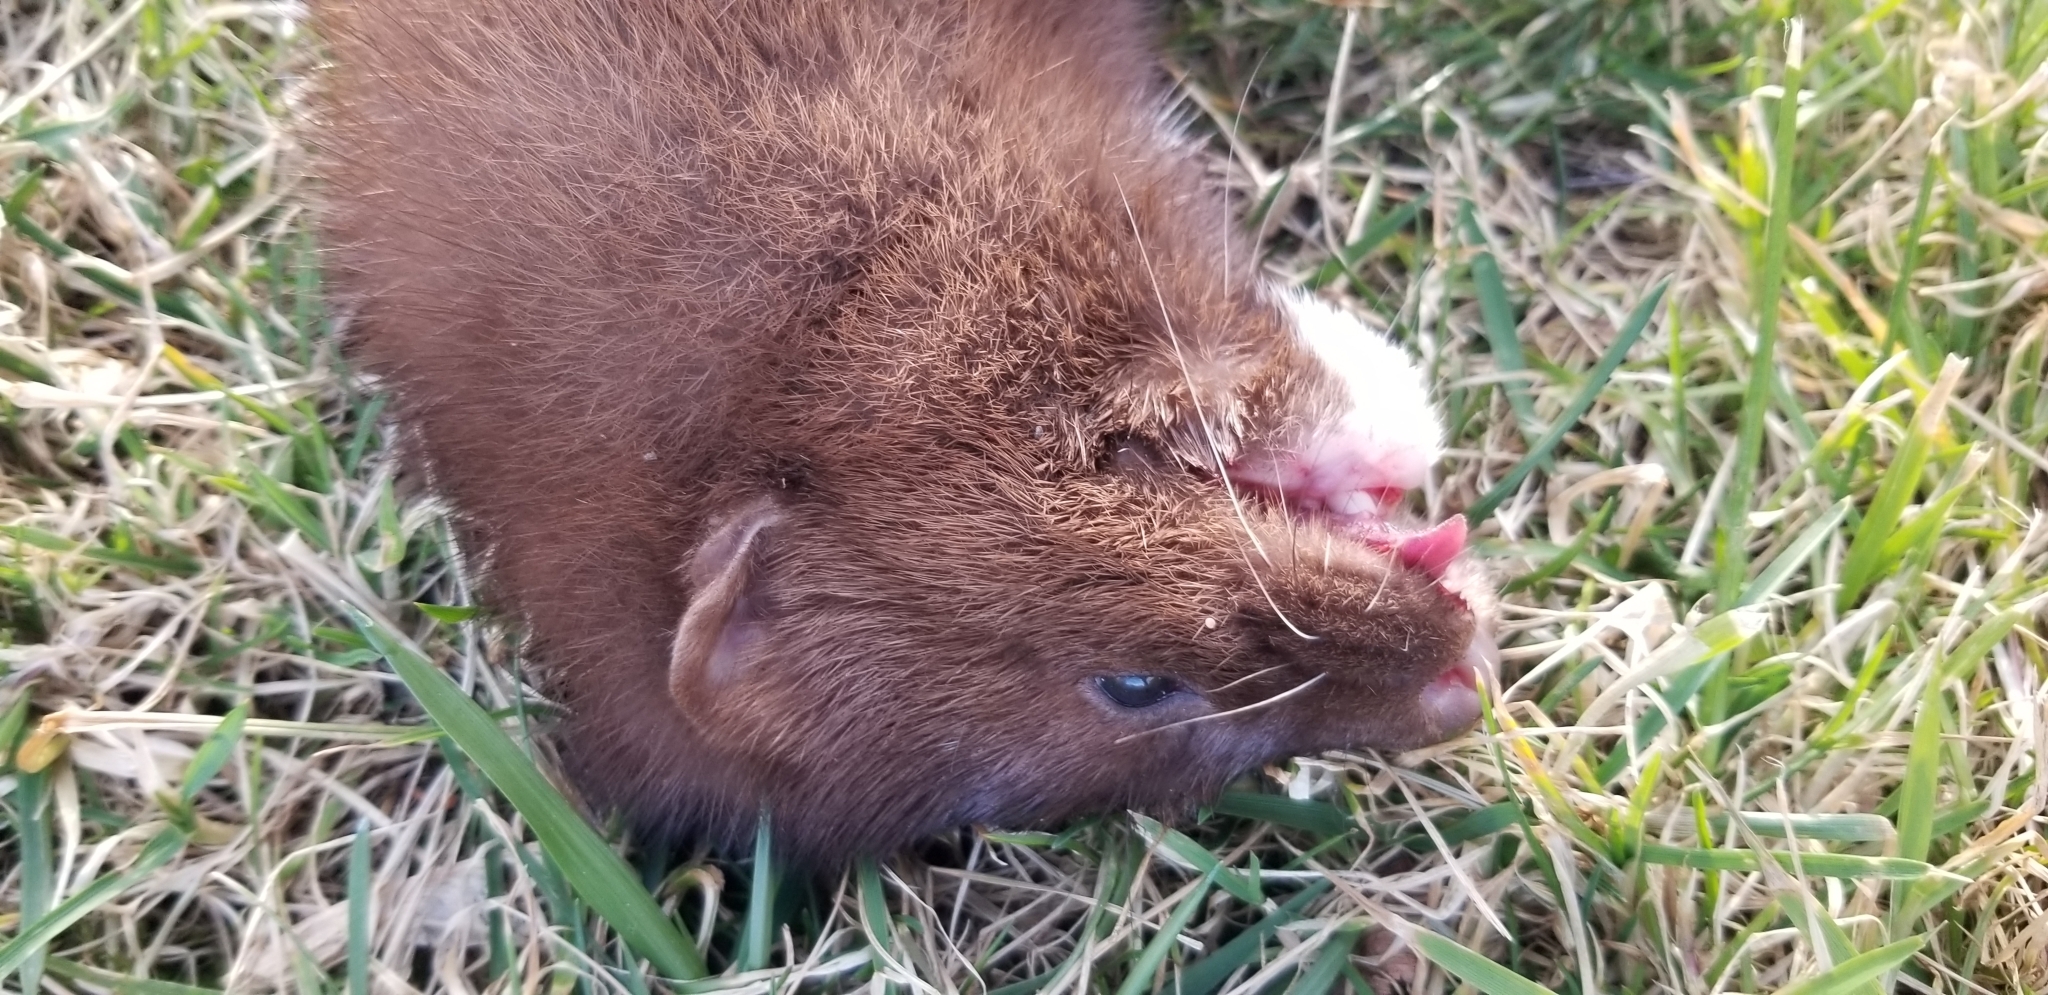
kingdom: Animalia
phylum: Chordata
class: Mammalia
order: Carnivora
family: Mustelidae
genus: Mustela
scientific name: Mustela
